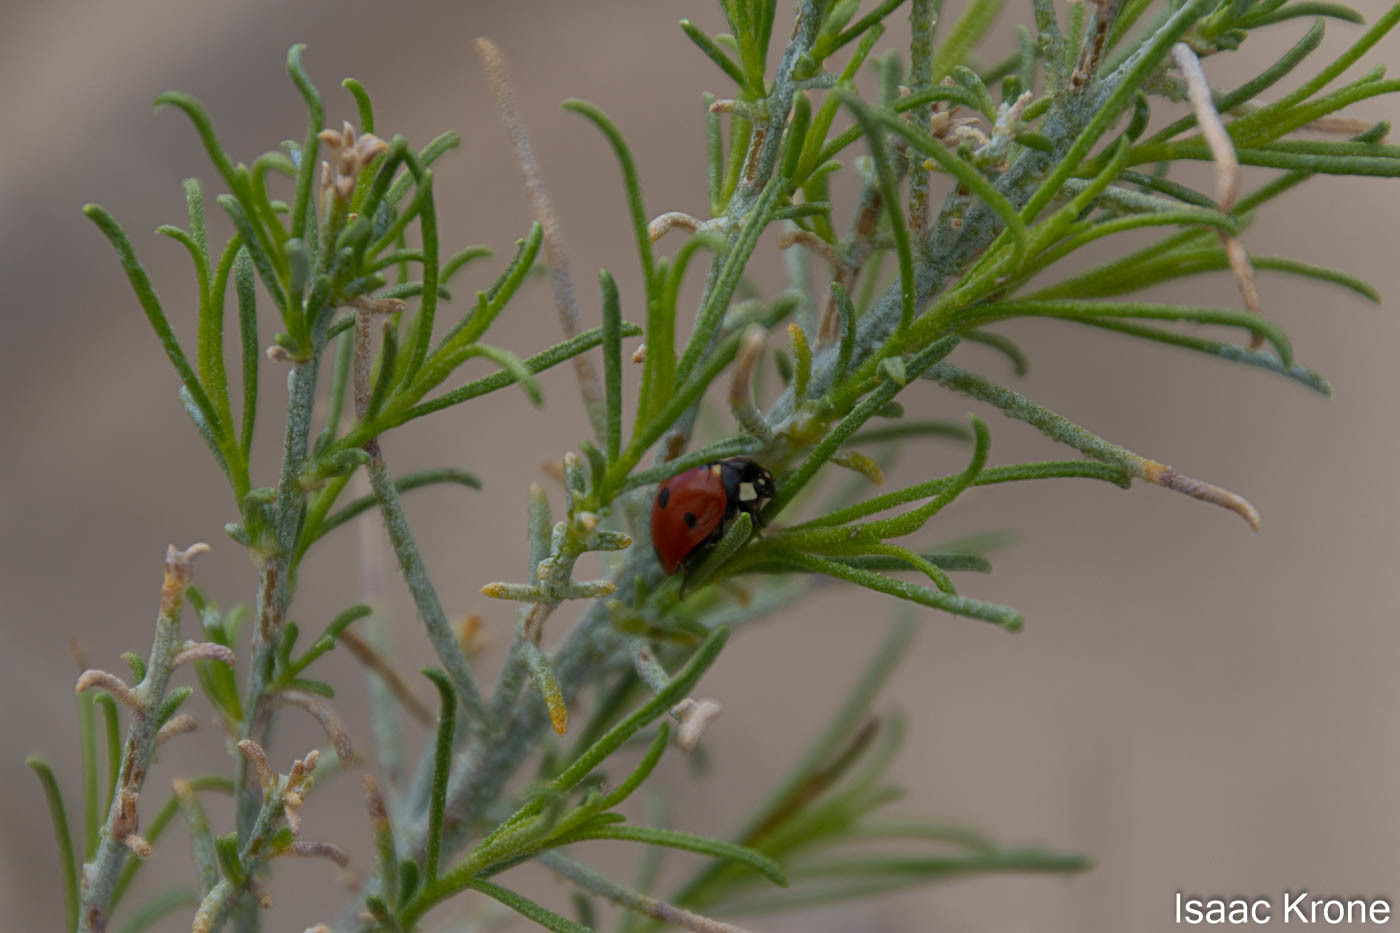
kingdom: Animalia
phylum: Arthropoda
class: Insecta
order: Coleoptera
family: Coccinellidae
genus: Coccinella
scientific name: Coccinella septempunctata
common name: Sevenspotted lady beetle
